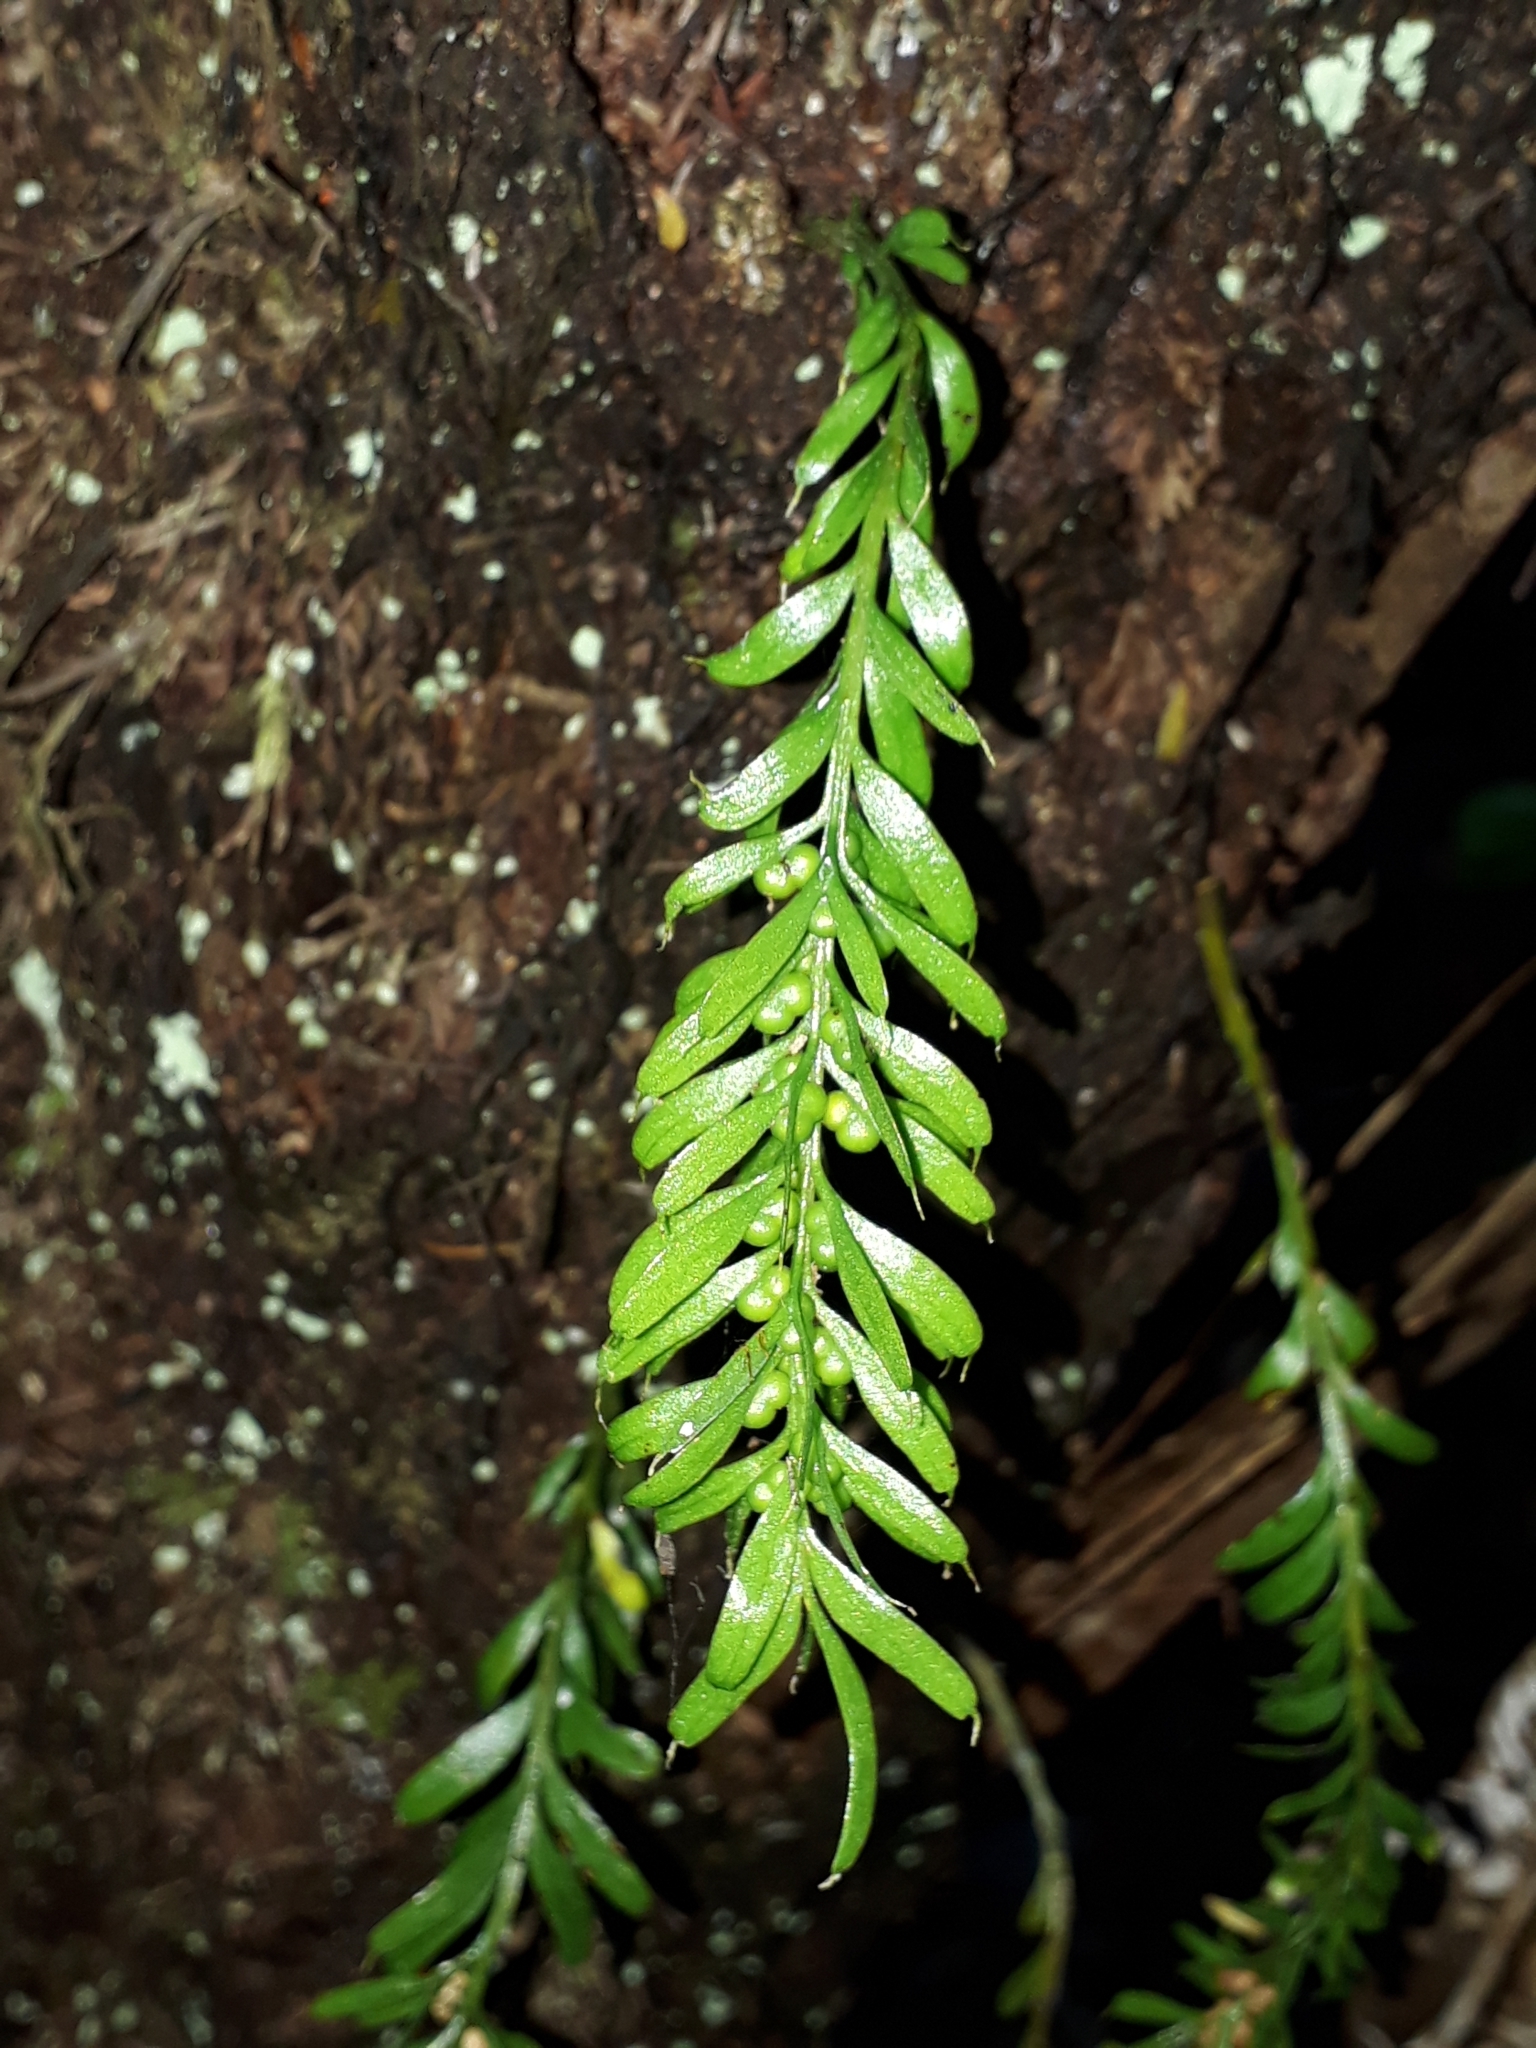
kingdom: Plantae
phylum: Tracheophyta
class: Polypodiopsida
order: Psilotales
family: Psilotaceae
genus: Tmesipteris
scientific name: Tmesipteris sigmatifolia
